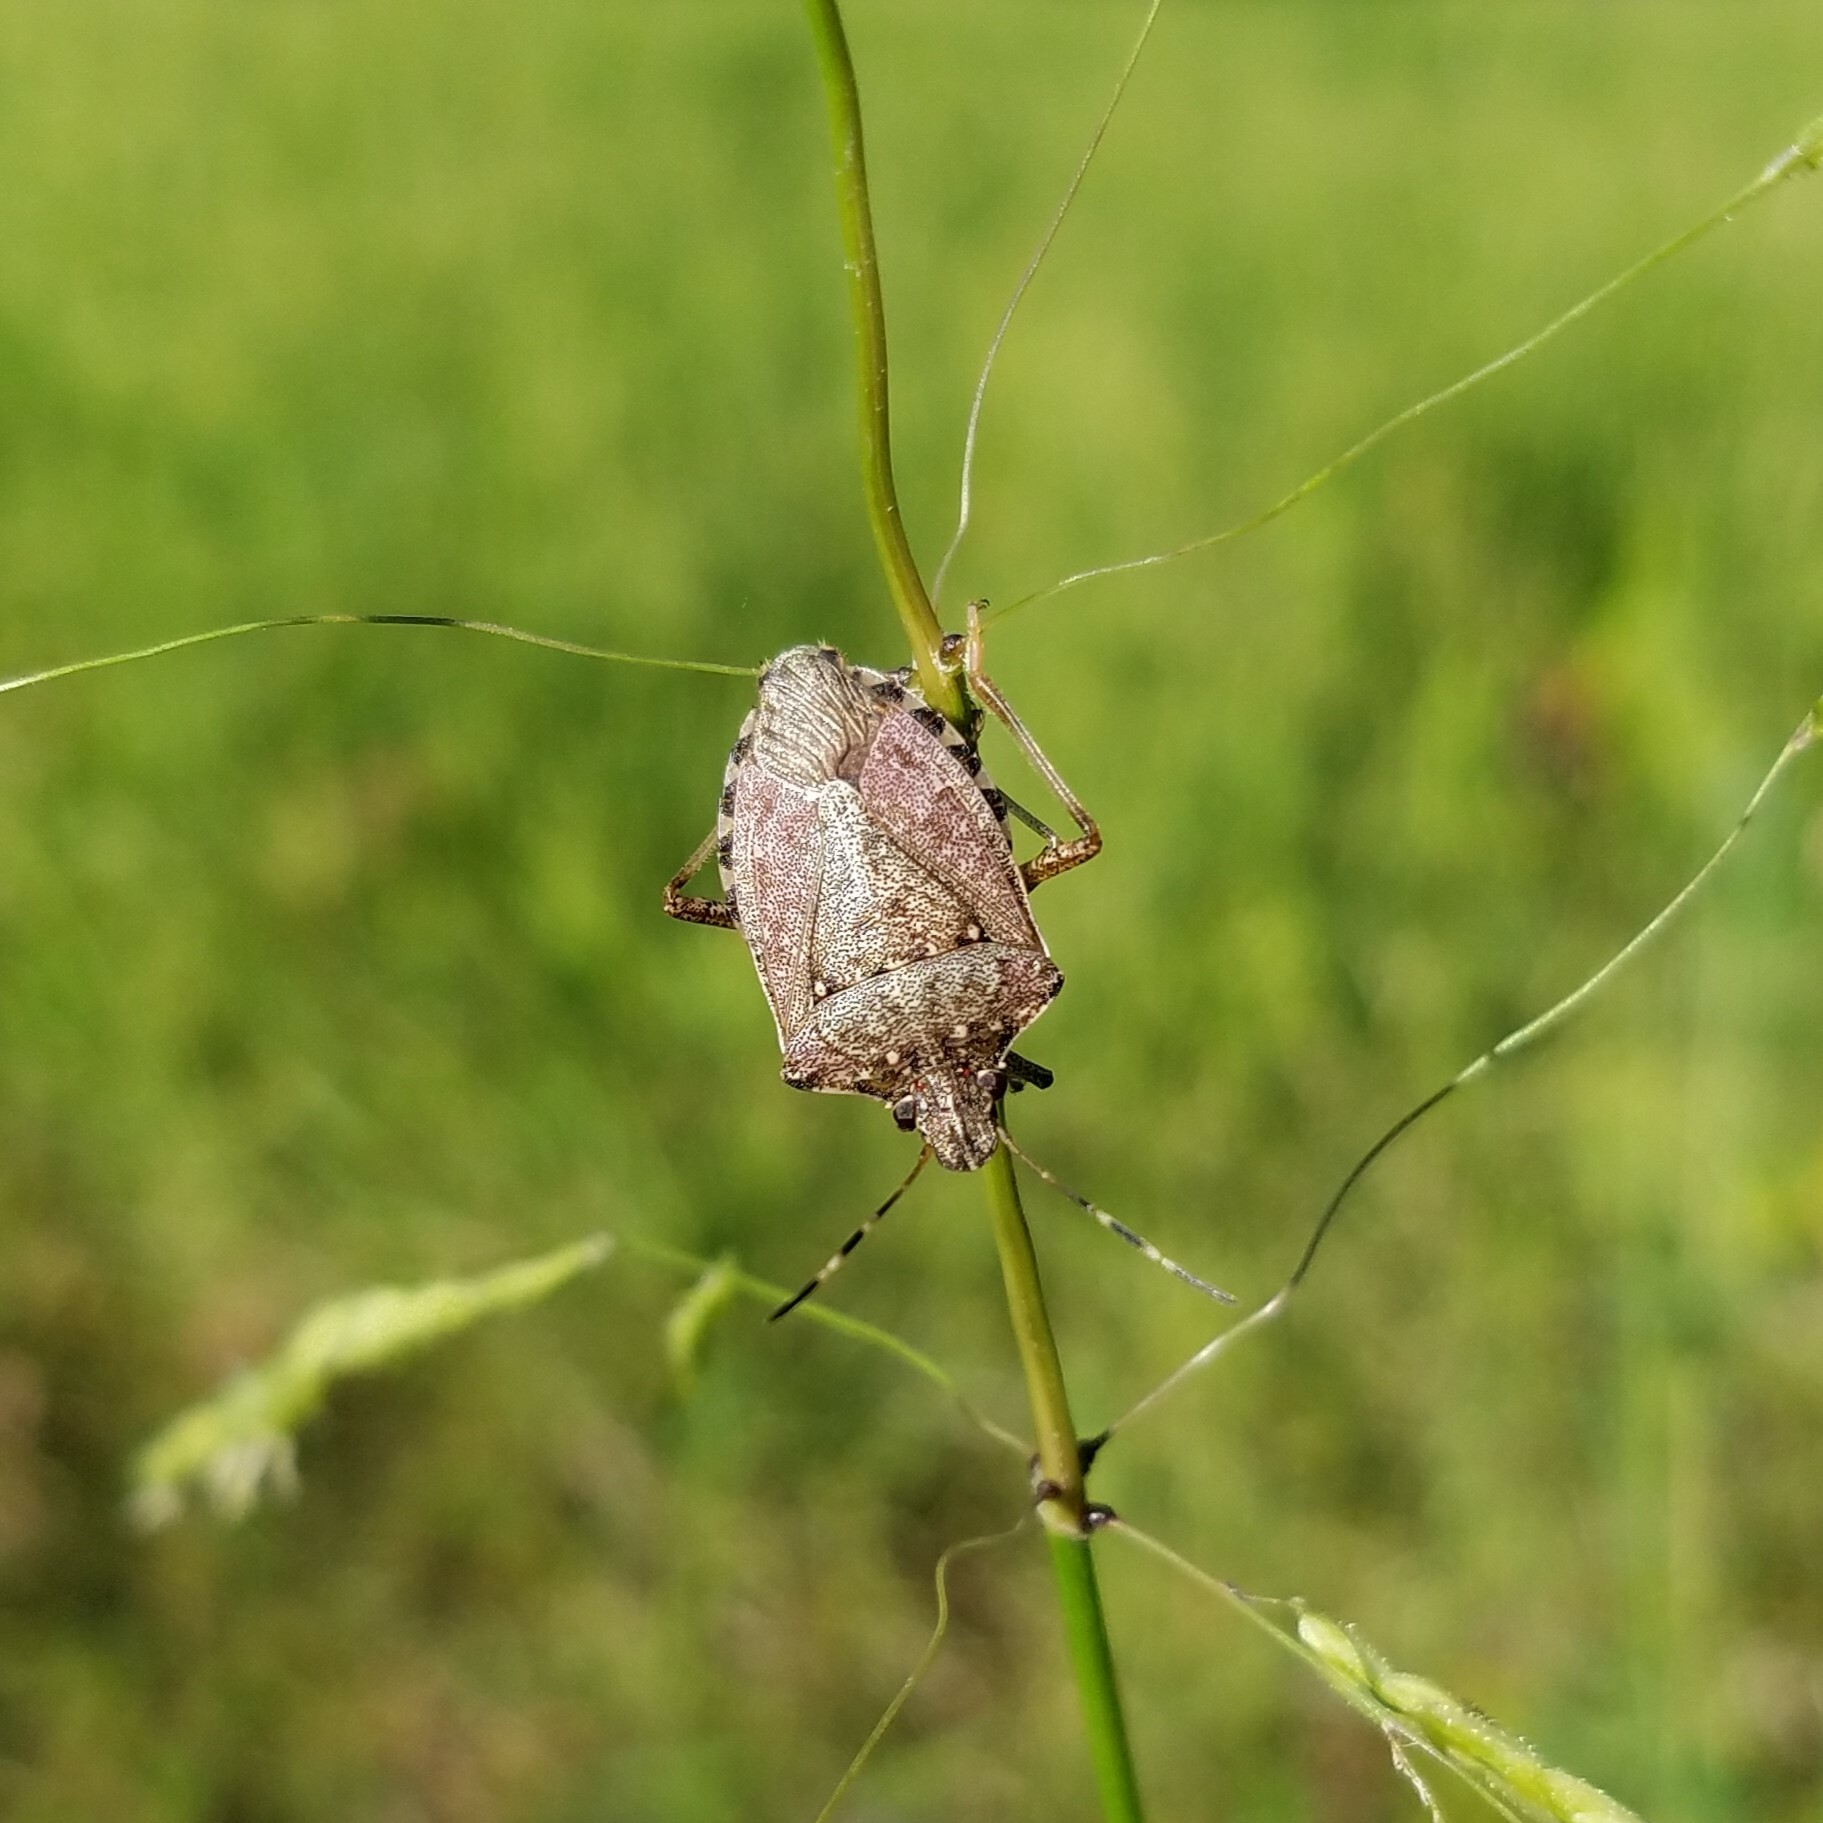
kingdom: Animalia
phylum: Arthropoda
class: Insecta
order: Hemiptera
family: Pentatomidae
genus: Halyomorpha
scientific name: Halyomorpha halys
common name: Brown marmorated stink bug
